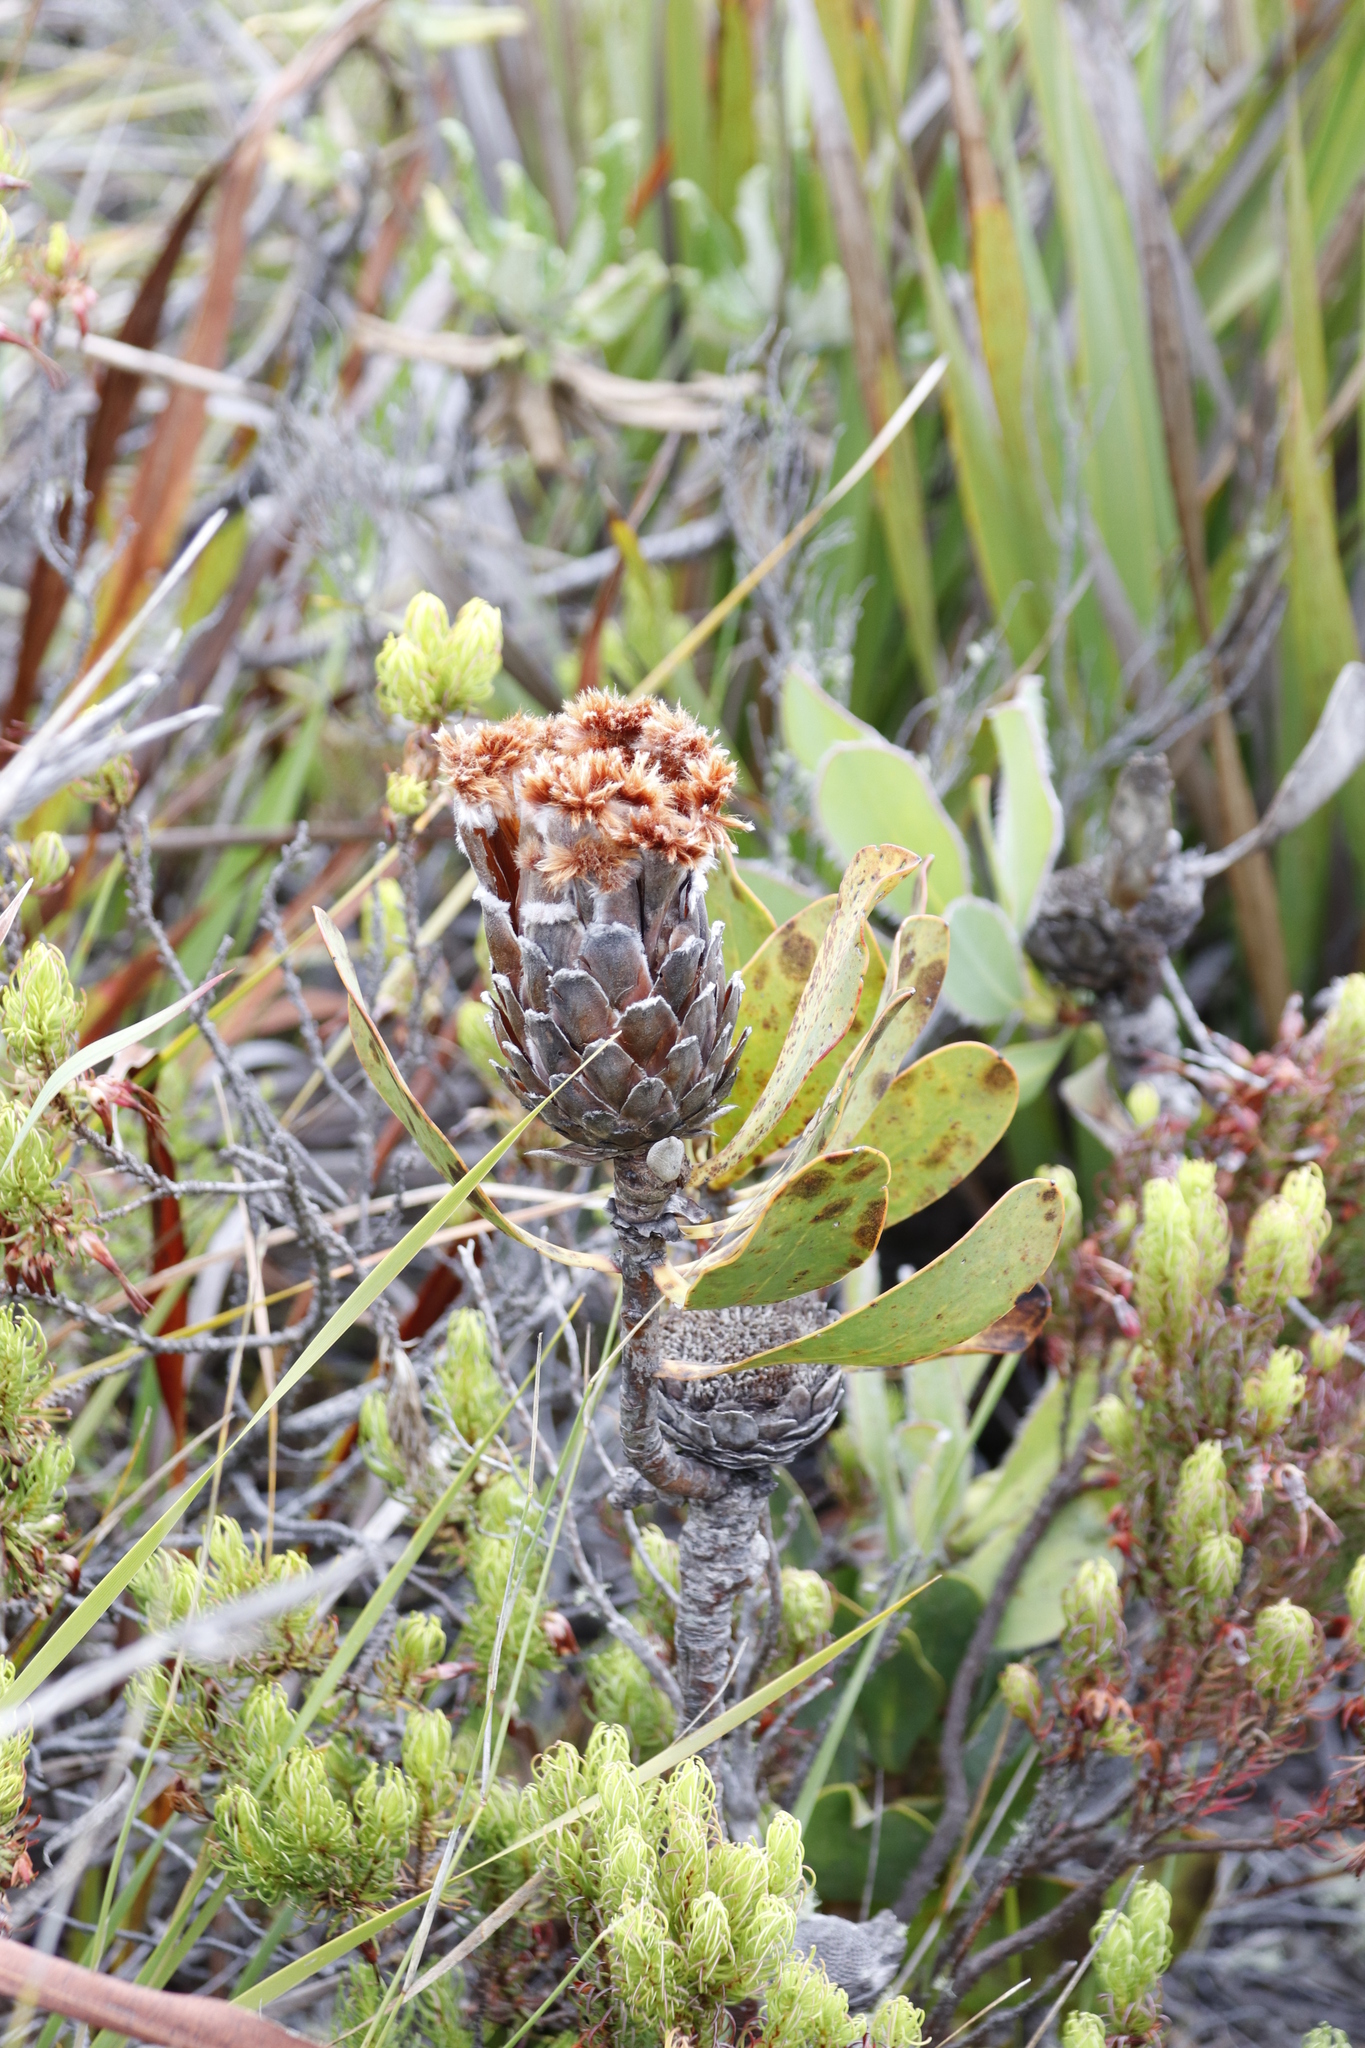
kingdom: Plantae
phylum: Tracheophyta
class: Magnoliopsida
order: Proteales
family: Proteaceae
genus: Protea
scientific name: Protea speciosa
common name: Brown-beard sugarbush
